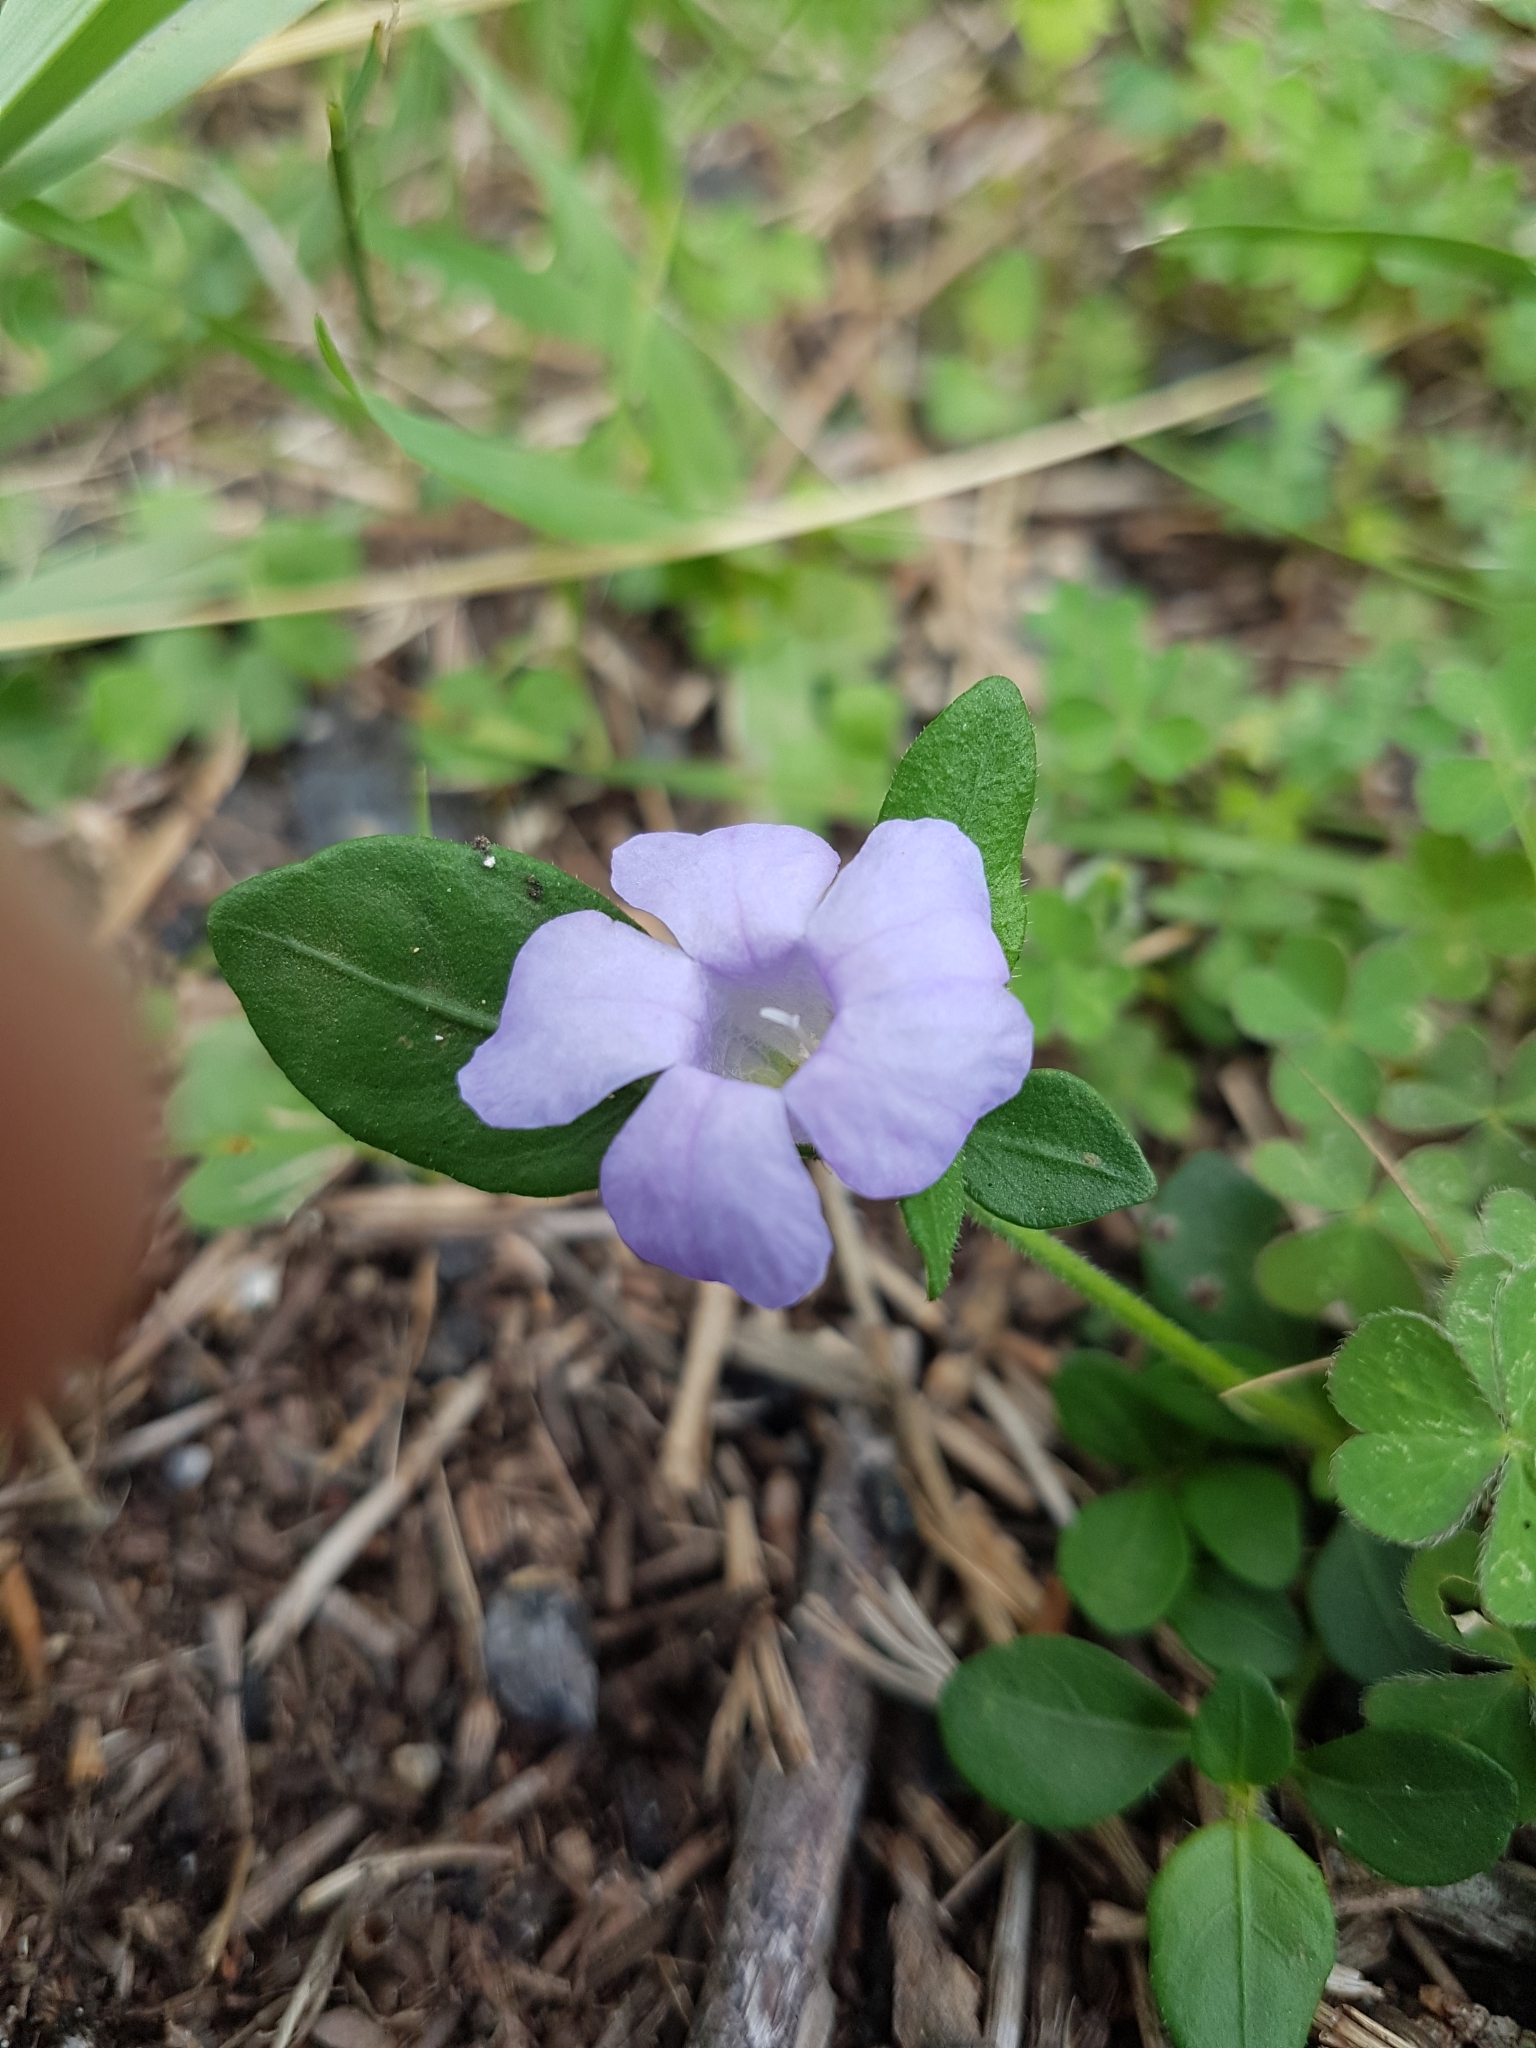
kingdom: Plantae
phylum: Tracheophyta
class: Magnoliopsida
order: Lamiales
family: Acanthaceae
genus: Brunoniella
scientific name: Brunoniella pumilio
